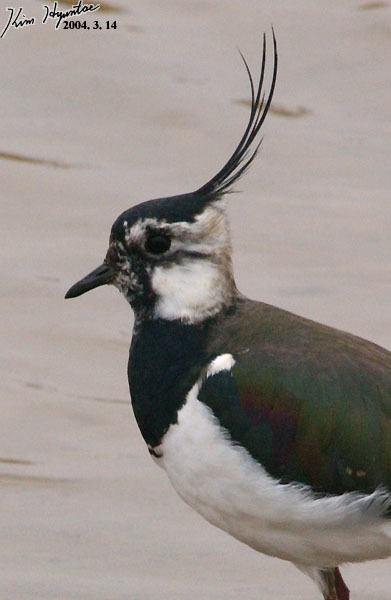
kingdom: Animalia
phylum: Chordata
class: Aves
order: Charadriiformes
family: Charadriidae
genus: Vanellus
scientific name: Vanellus vanellus
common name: Northern lapwing
